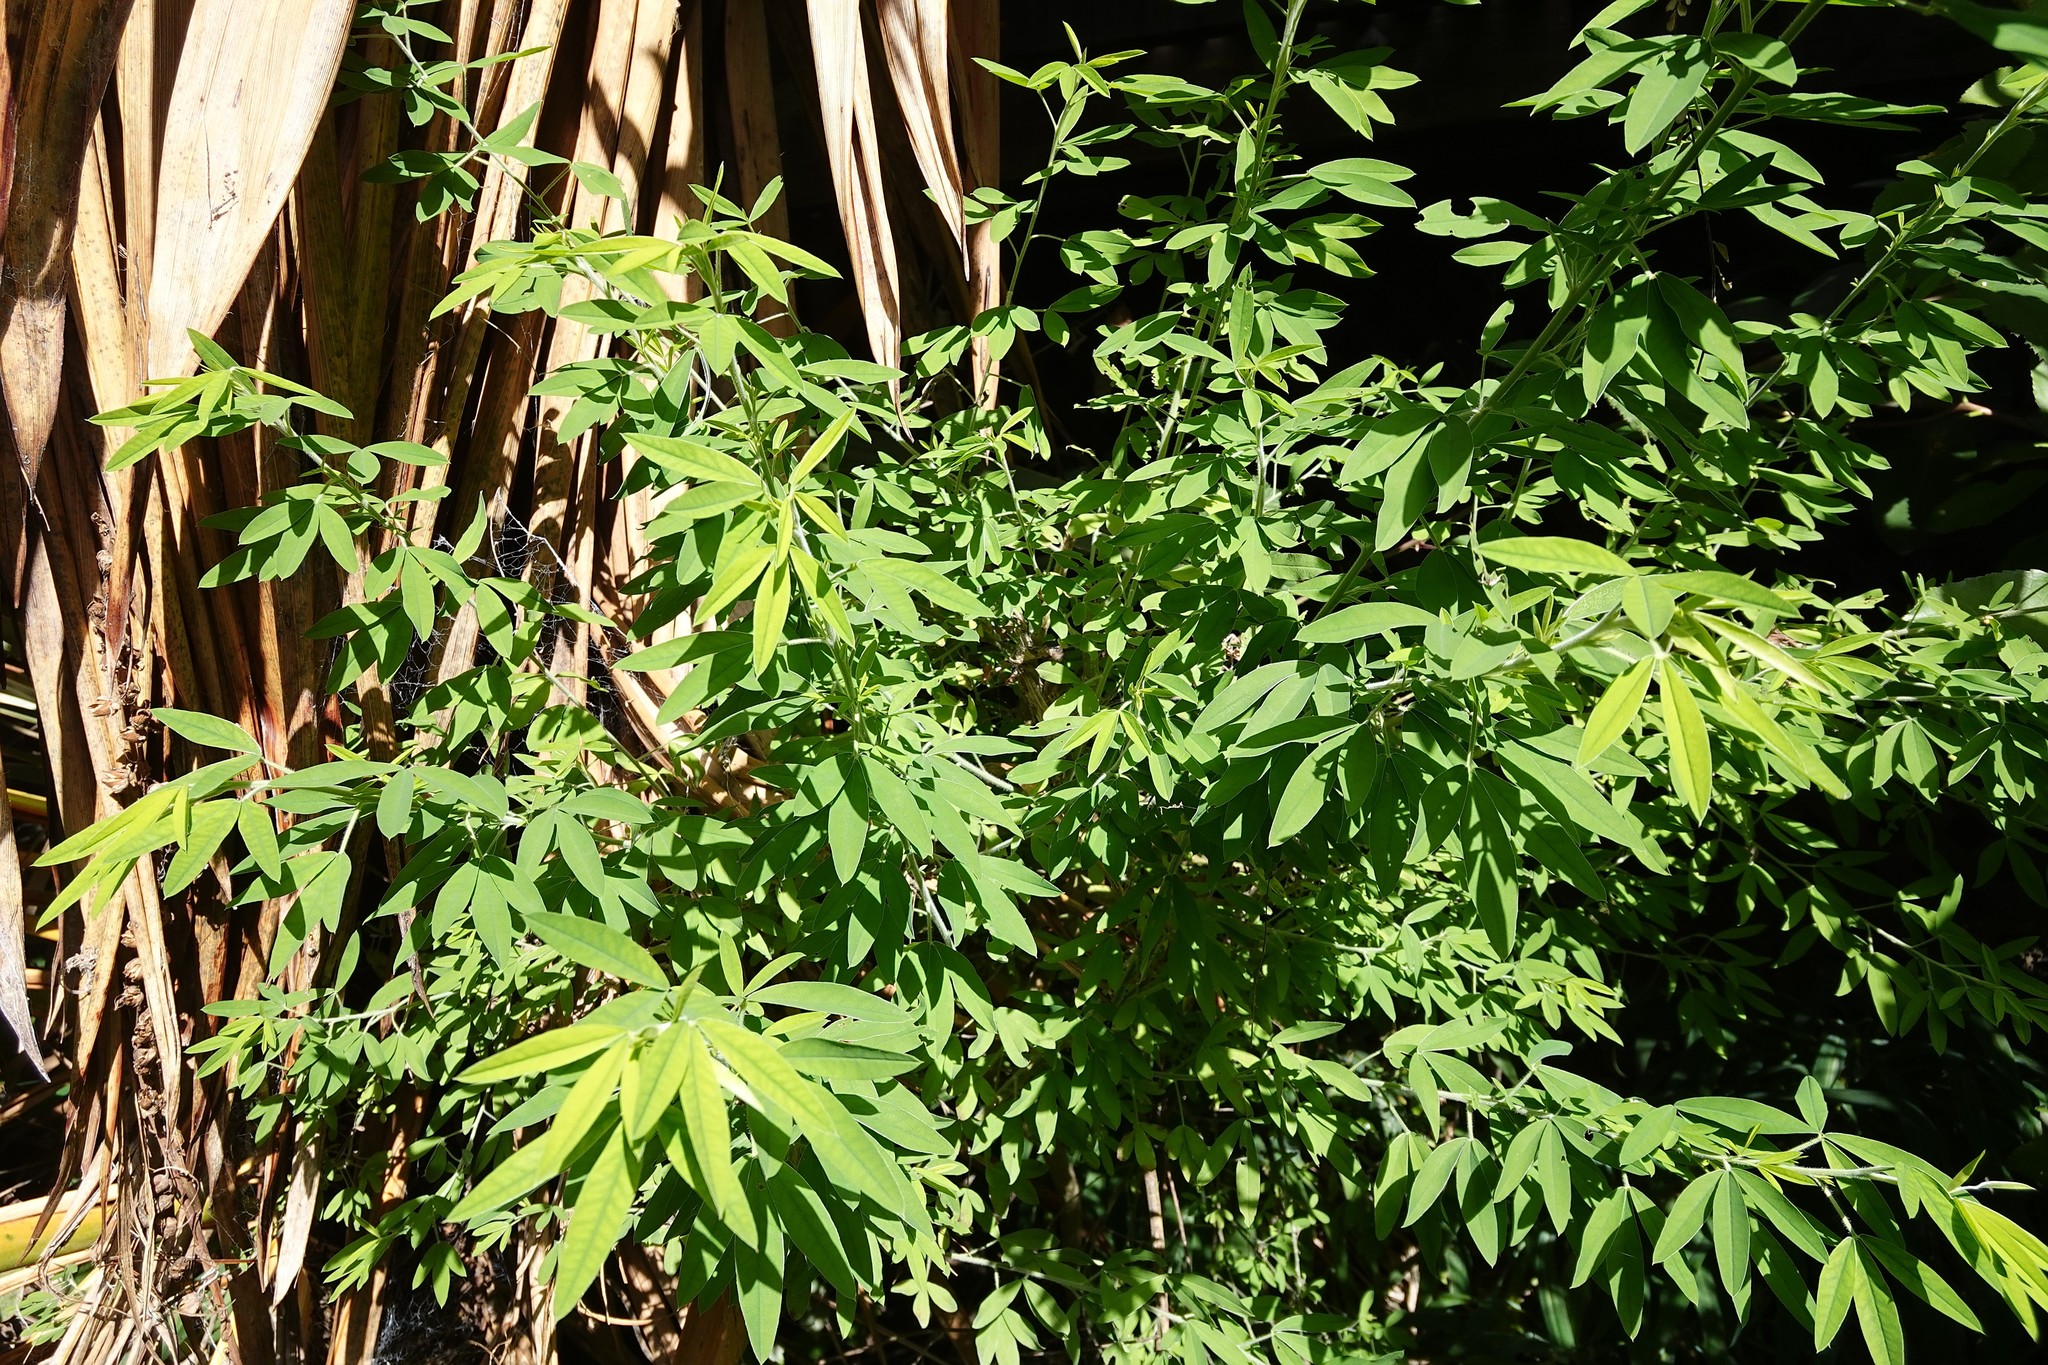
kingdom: Plantae
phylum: Tracheophyta
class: Magnoliopsida
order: Fabales
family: Fabaceae
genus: Chamaecytisus
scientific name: Chamaecytisus prolifer
